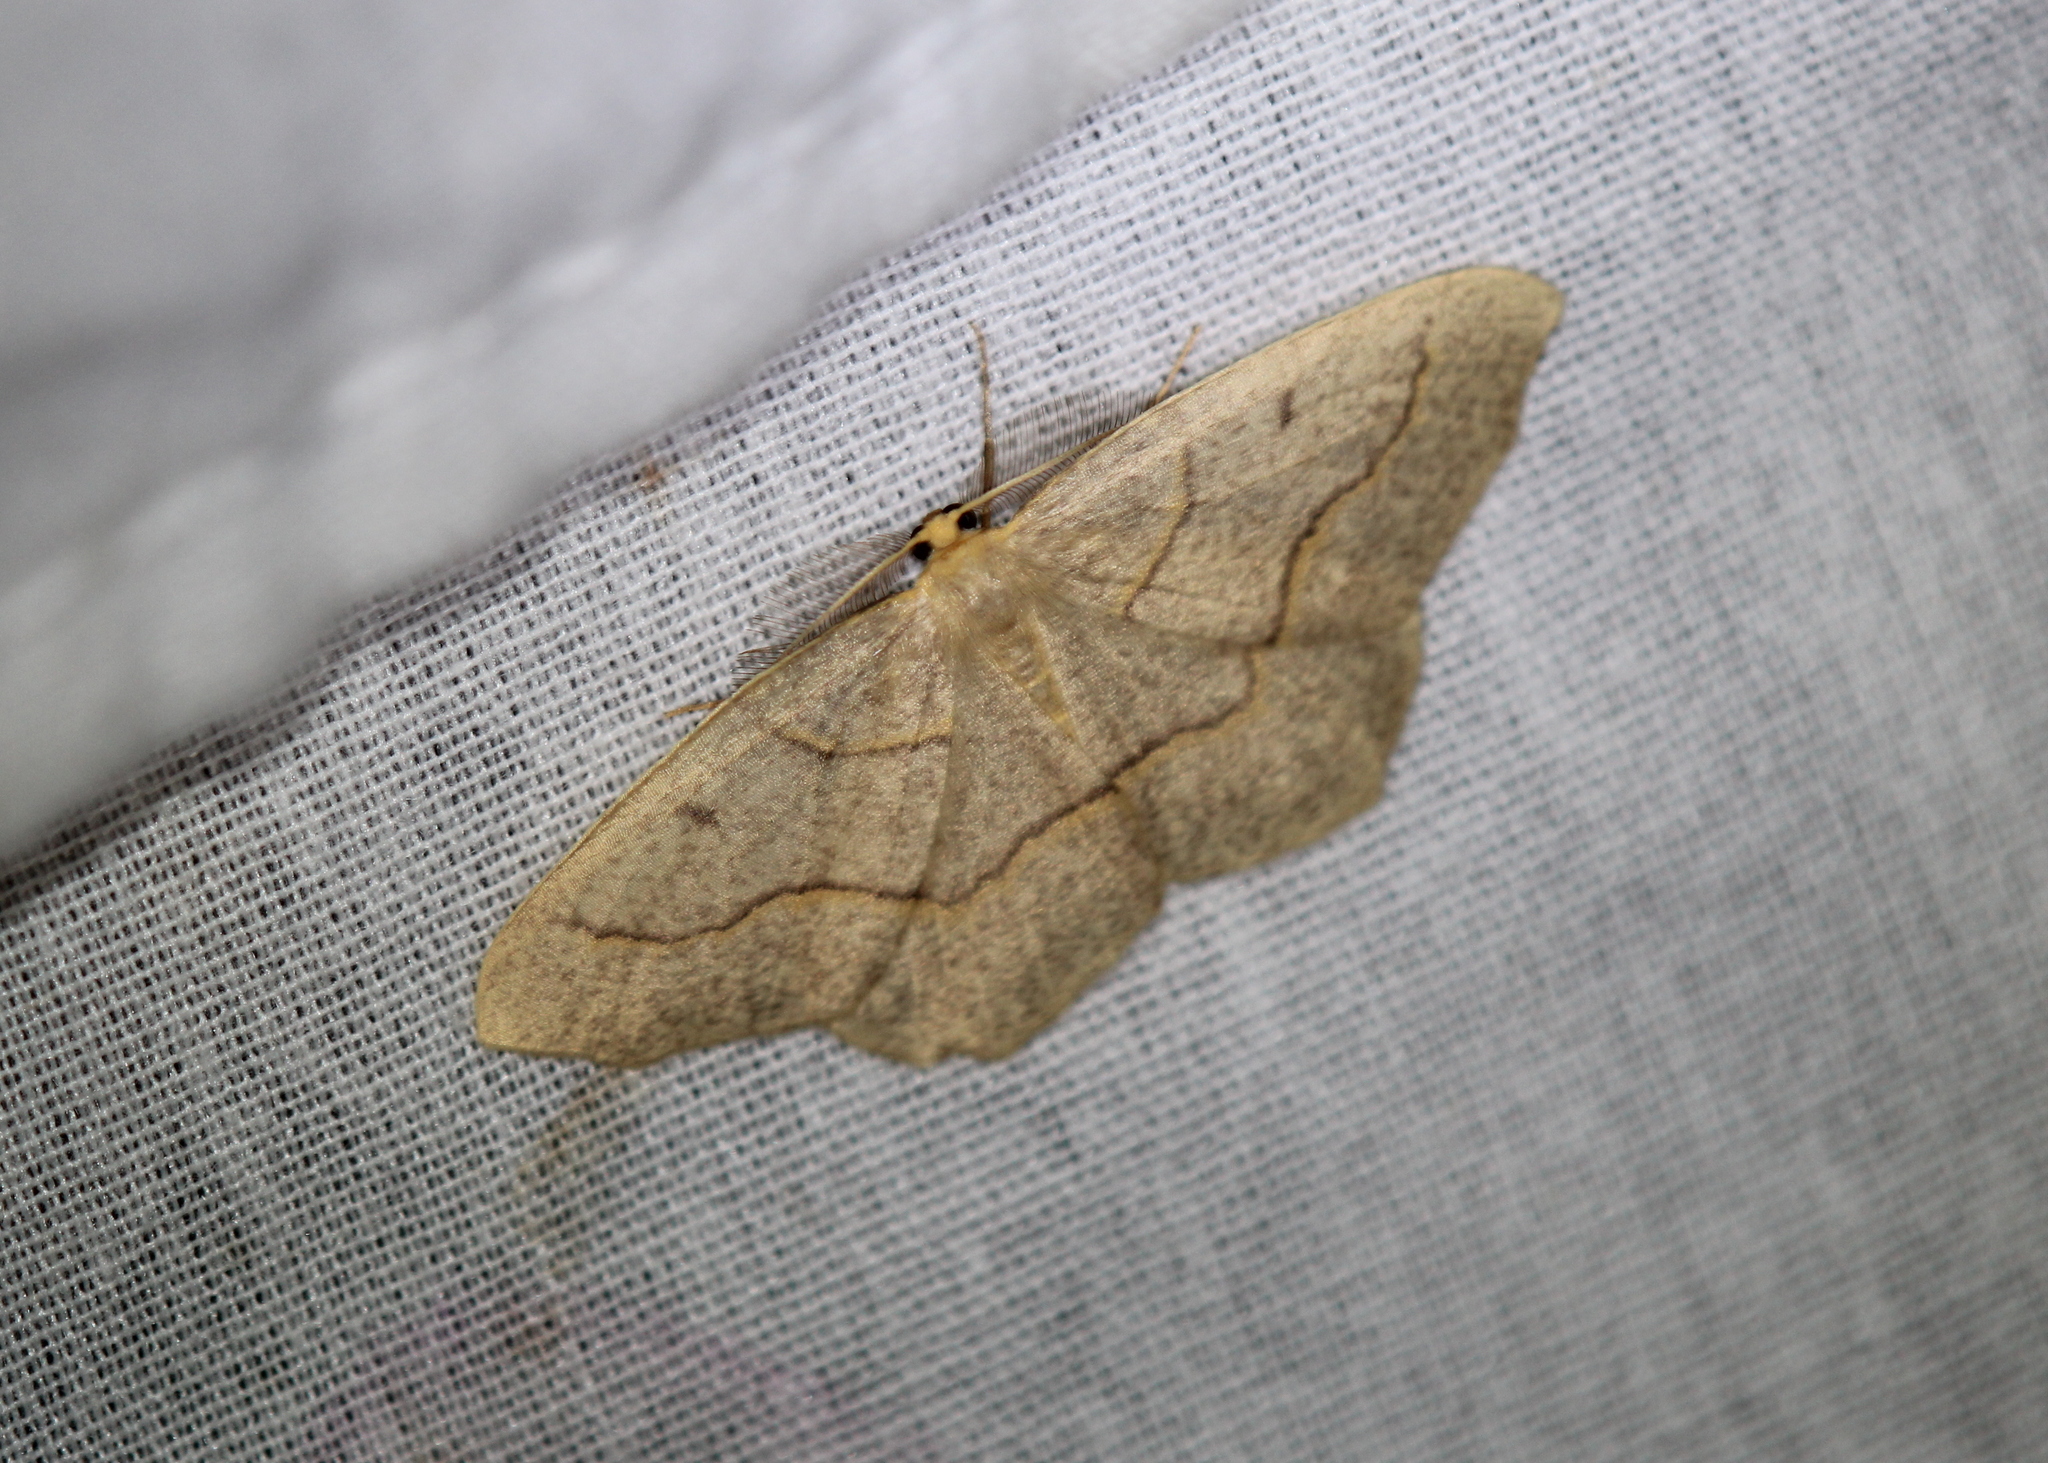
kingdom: Animalia
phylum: Arthropoda
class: Insecta
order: Lepidoptera
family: Geometridae
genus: Lambdina
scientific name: Lambdina fiscellaria
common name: Hemlock looper
